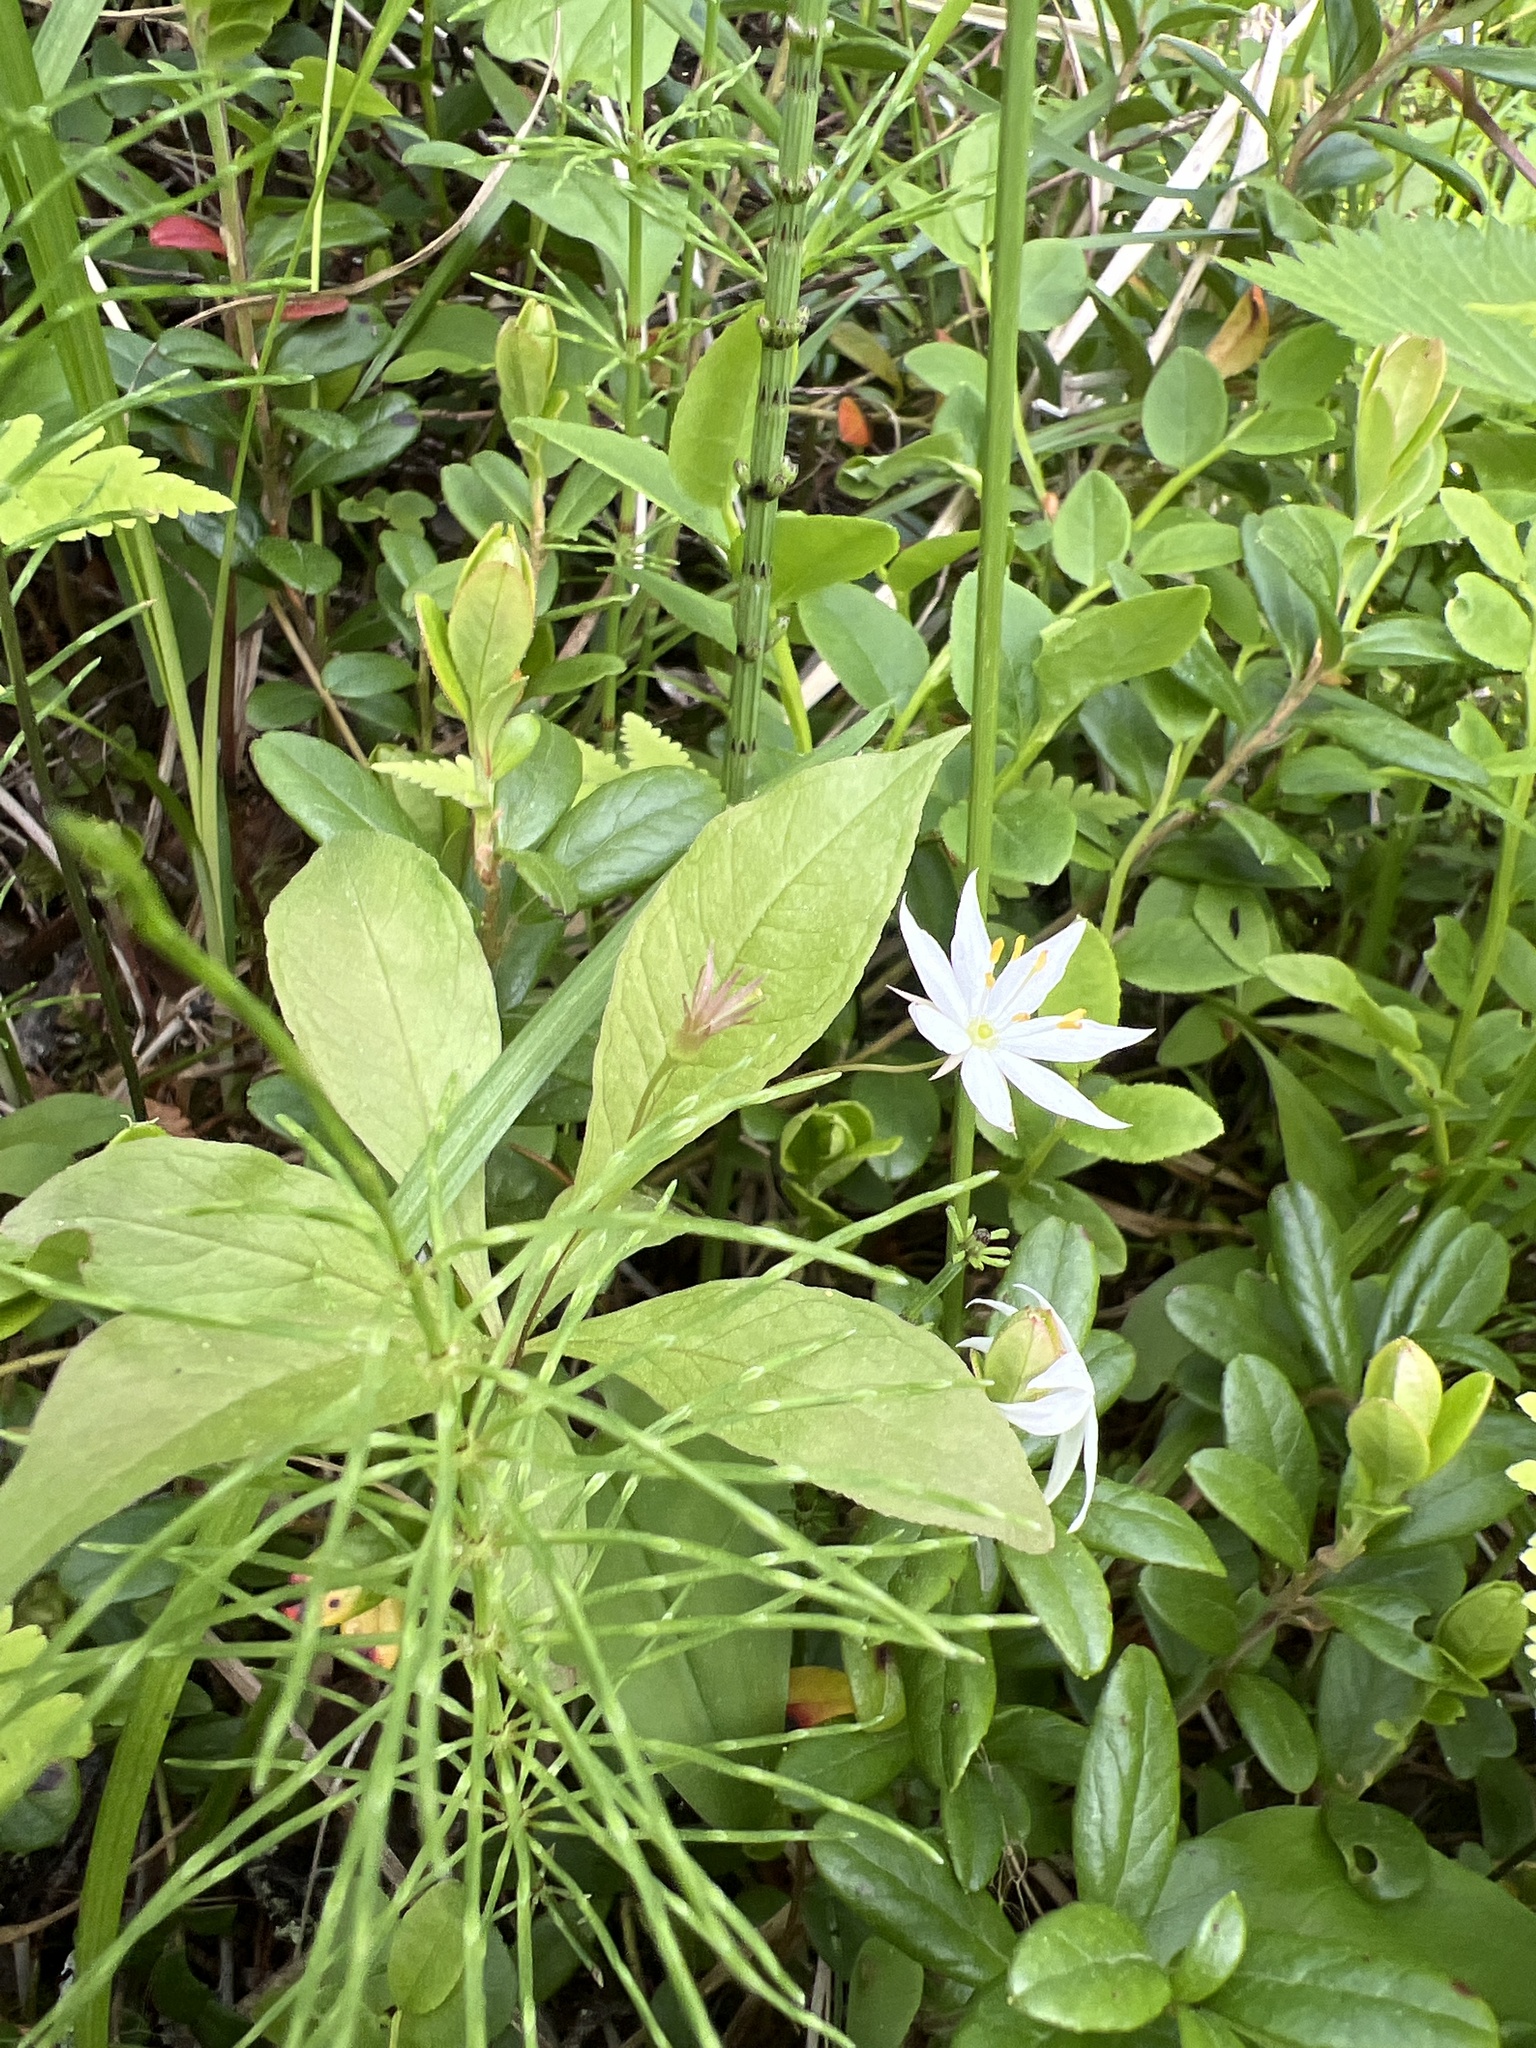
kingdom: Plantae
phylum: Tracheophyta
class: Magnoliopsida
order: Ericales
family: Primulaceae
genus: Lysimachia
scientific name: Lysimachia europaea
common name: Arctic starflower
